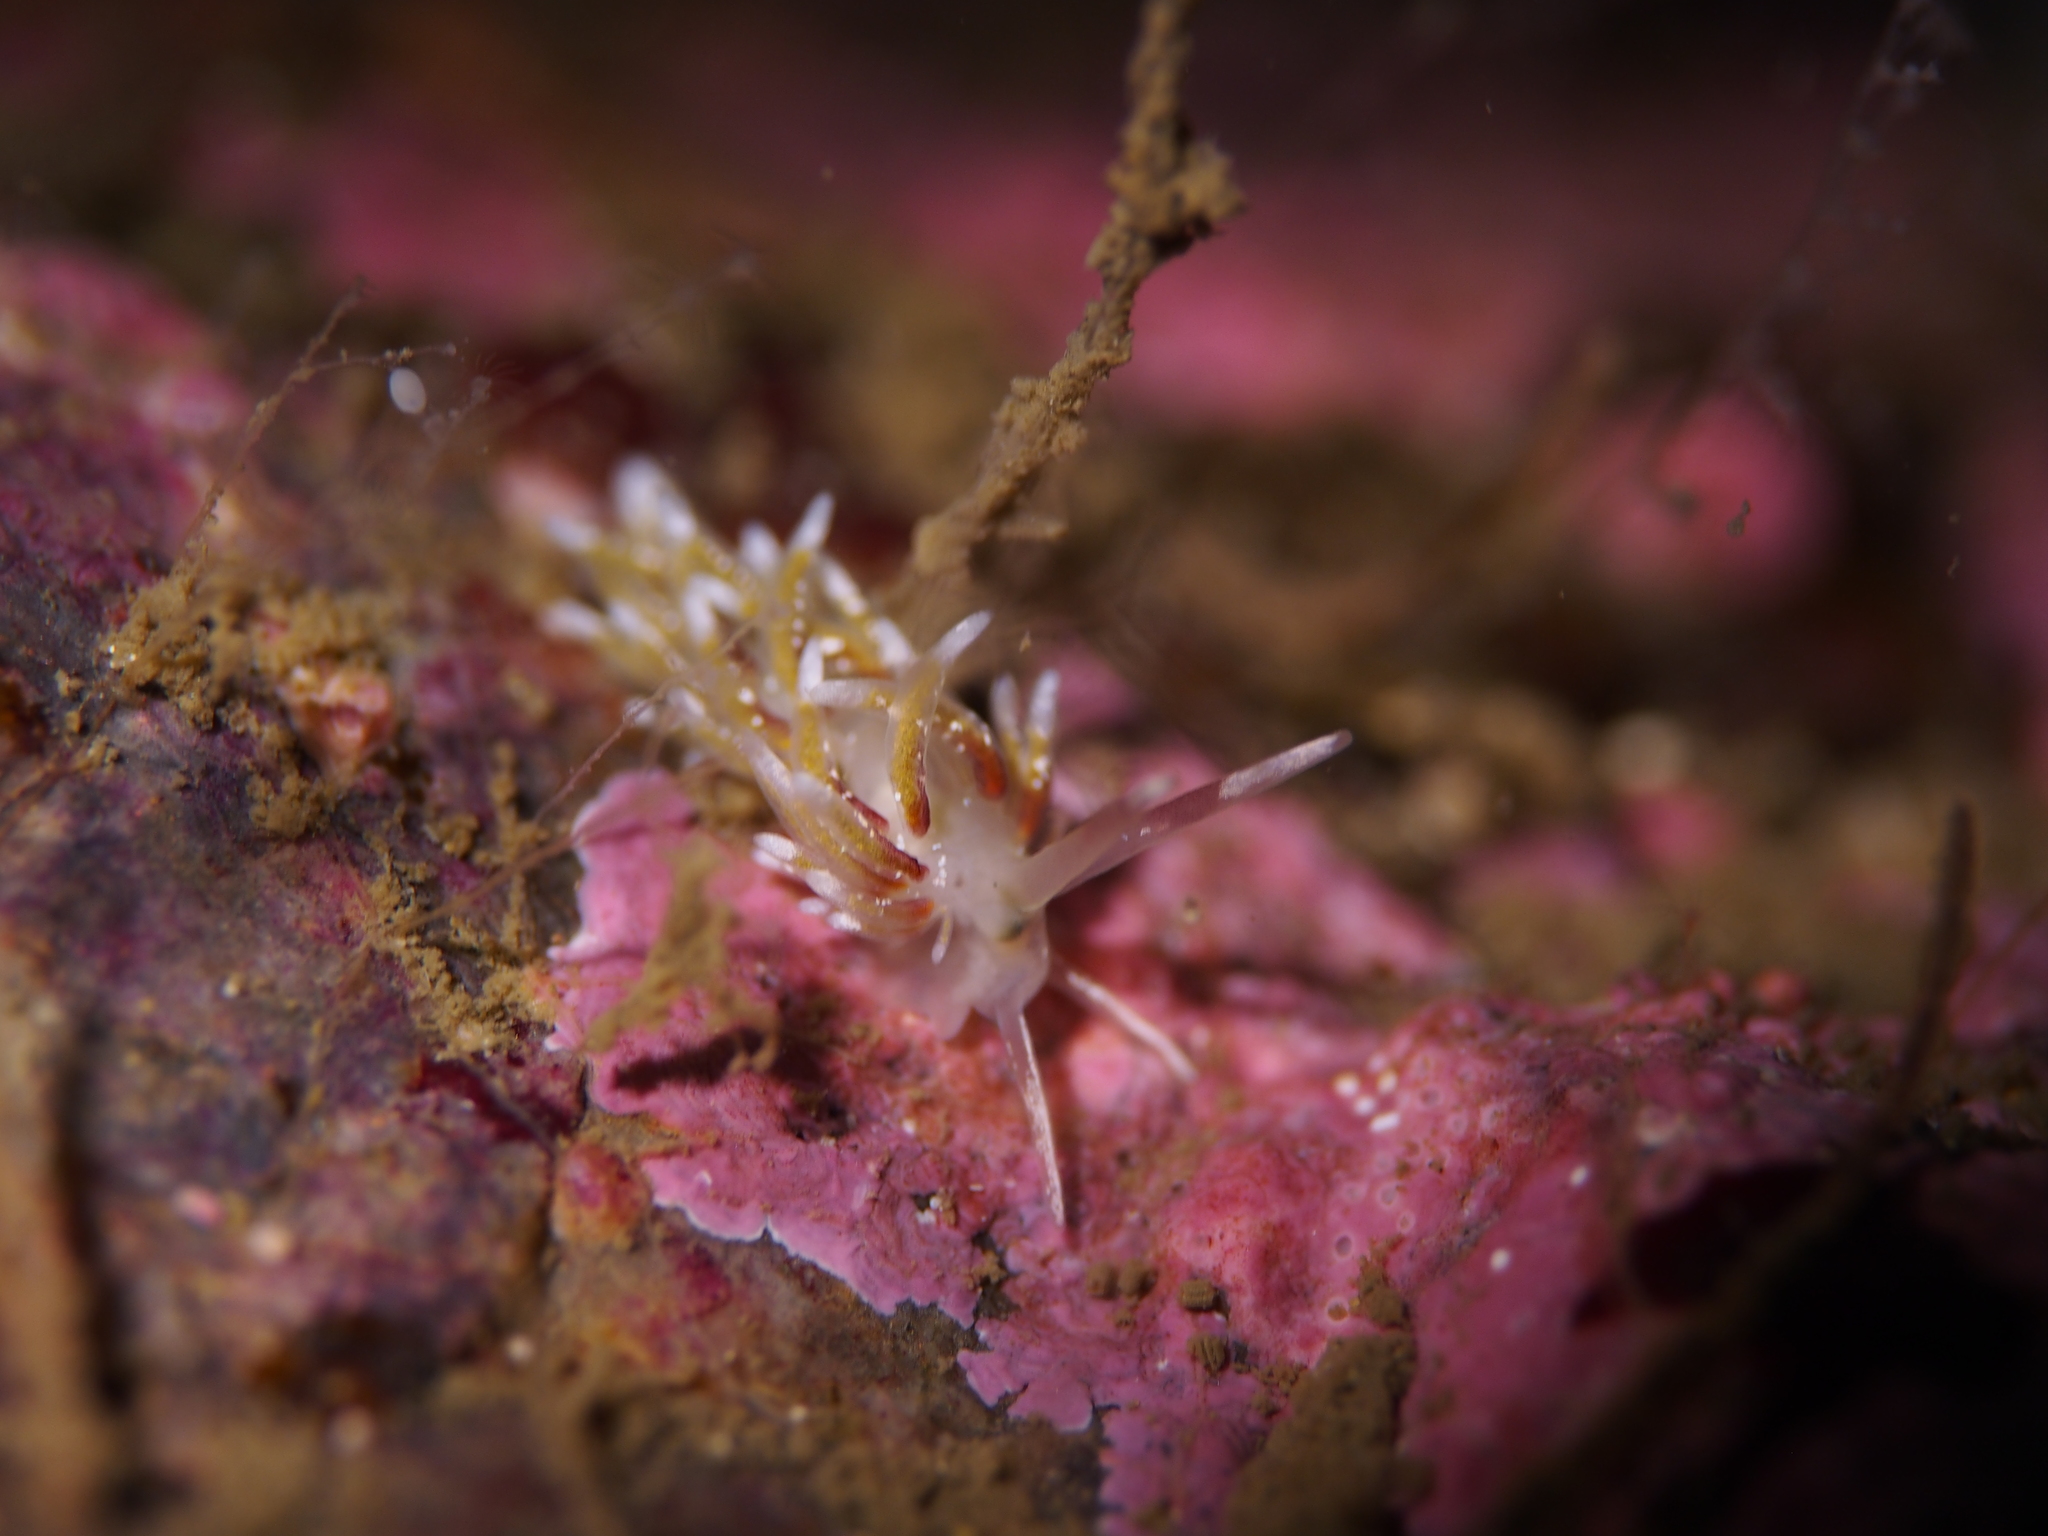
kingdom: Animalia
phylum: Mollusca
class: Gastropoda
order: Nudibranchia
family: Trinchesiidae
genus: Rubramoena
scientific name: Rubramoena rubescens
